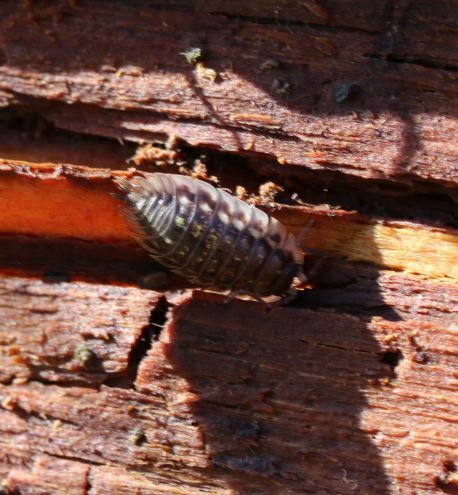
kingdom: Animalia
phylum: Arthropoda
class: Malacostraca
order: Isopoda
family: Oniscidae
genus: Oniscus
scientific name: Oniscus asellus
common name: Common shiny woodlouse
